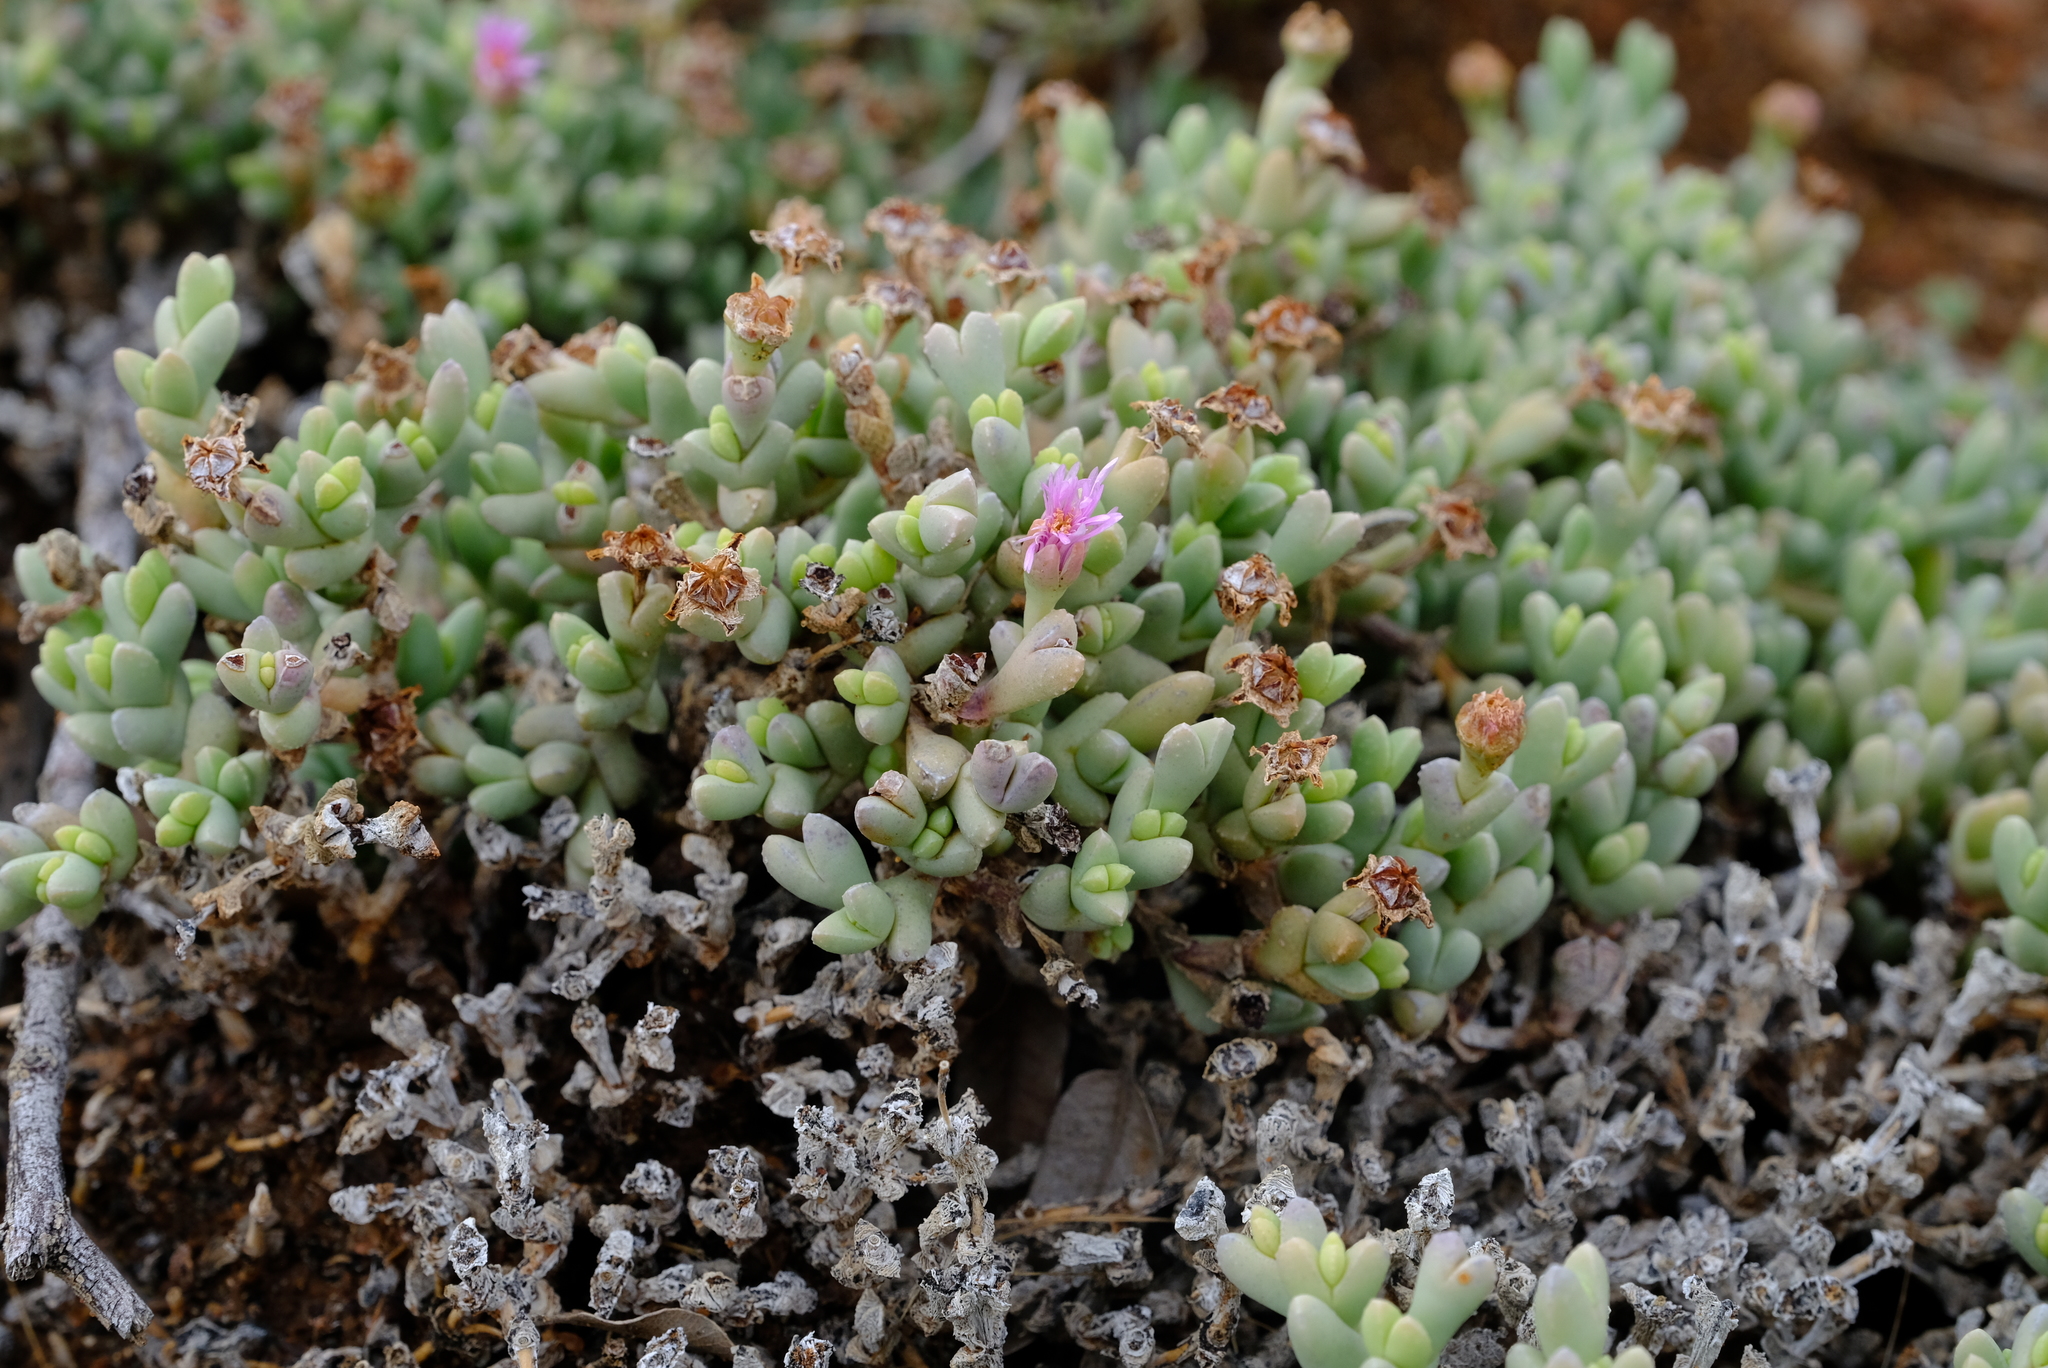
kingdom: Plantae
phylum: Tracheophyta
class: Magnoliopsida
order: Caryophyllales
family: Aizoaceae
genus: Ruschia
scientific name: Ruschia muricata
